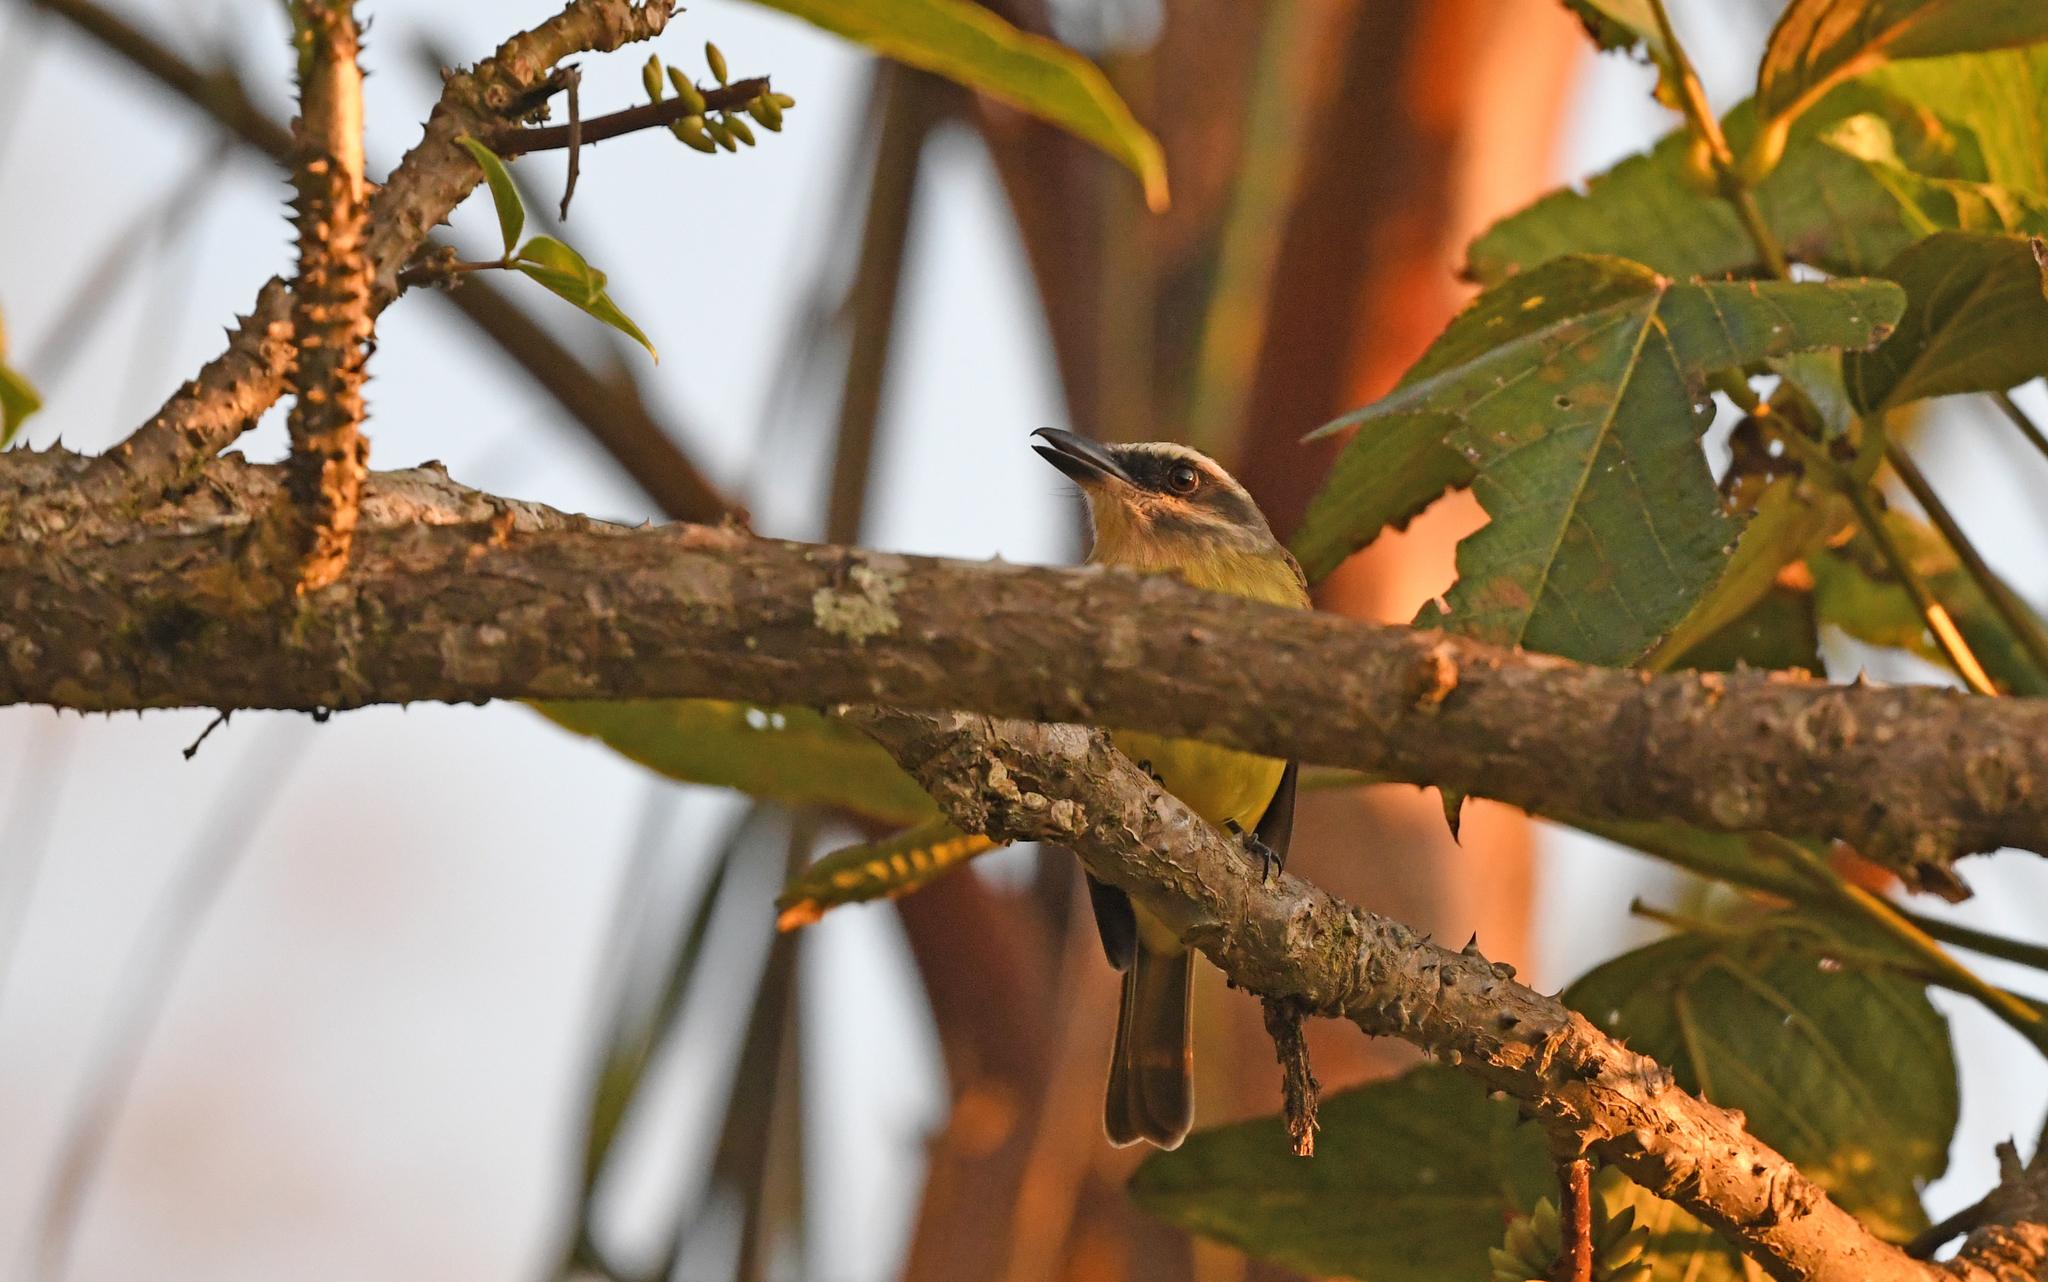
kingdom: Animalia
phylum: Chordata
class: Aves
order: Passeriformes
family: Tyrannidae
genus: Myiodynastes
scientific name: Myiodynastes hemichrysus
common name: Golden-bellied flycatcher
